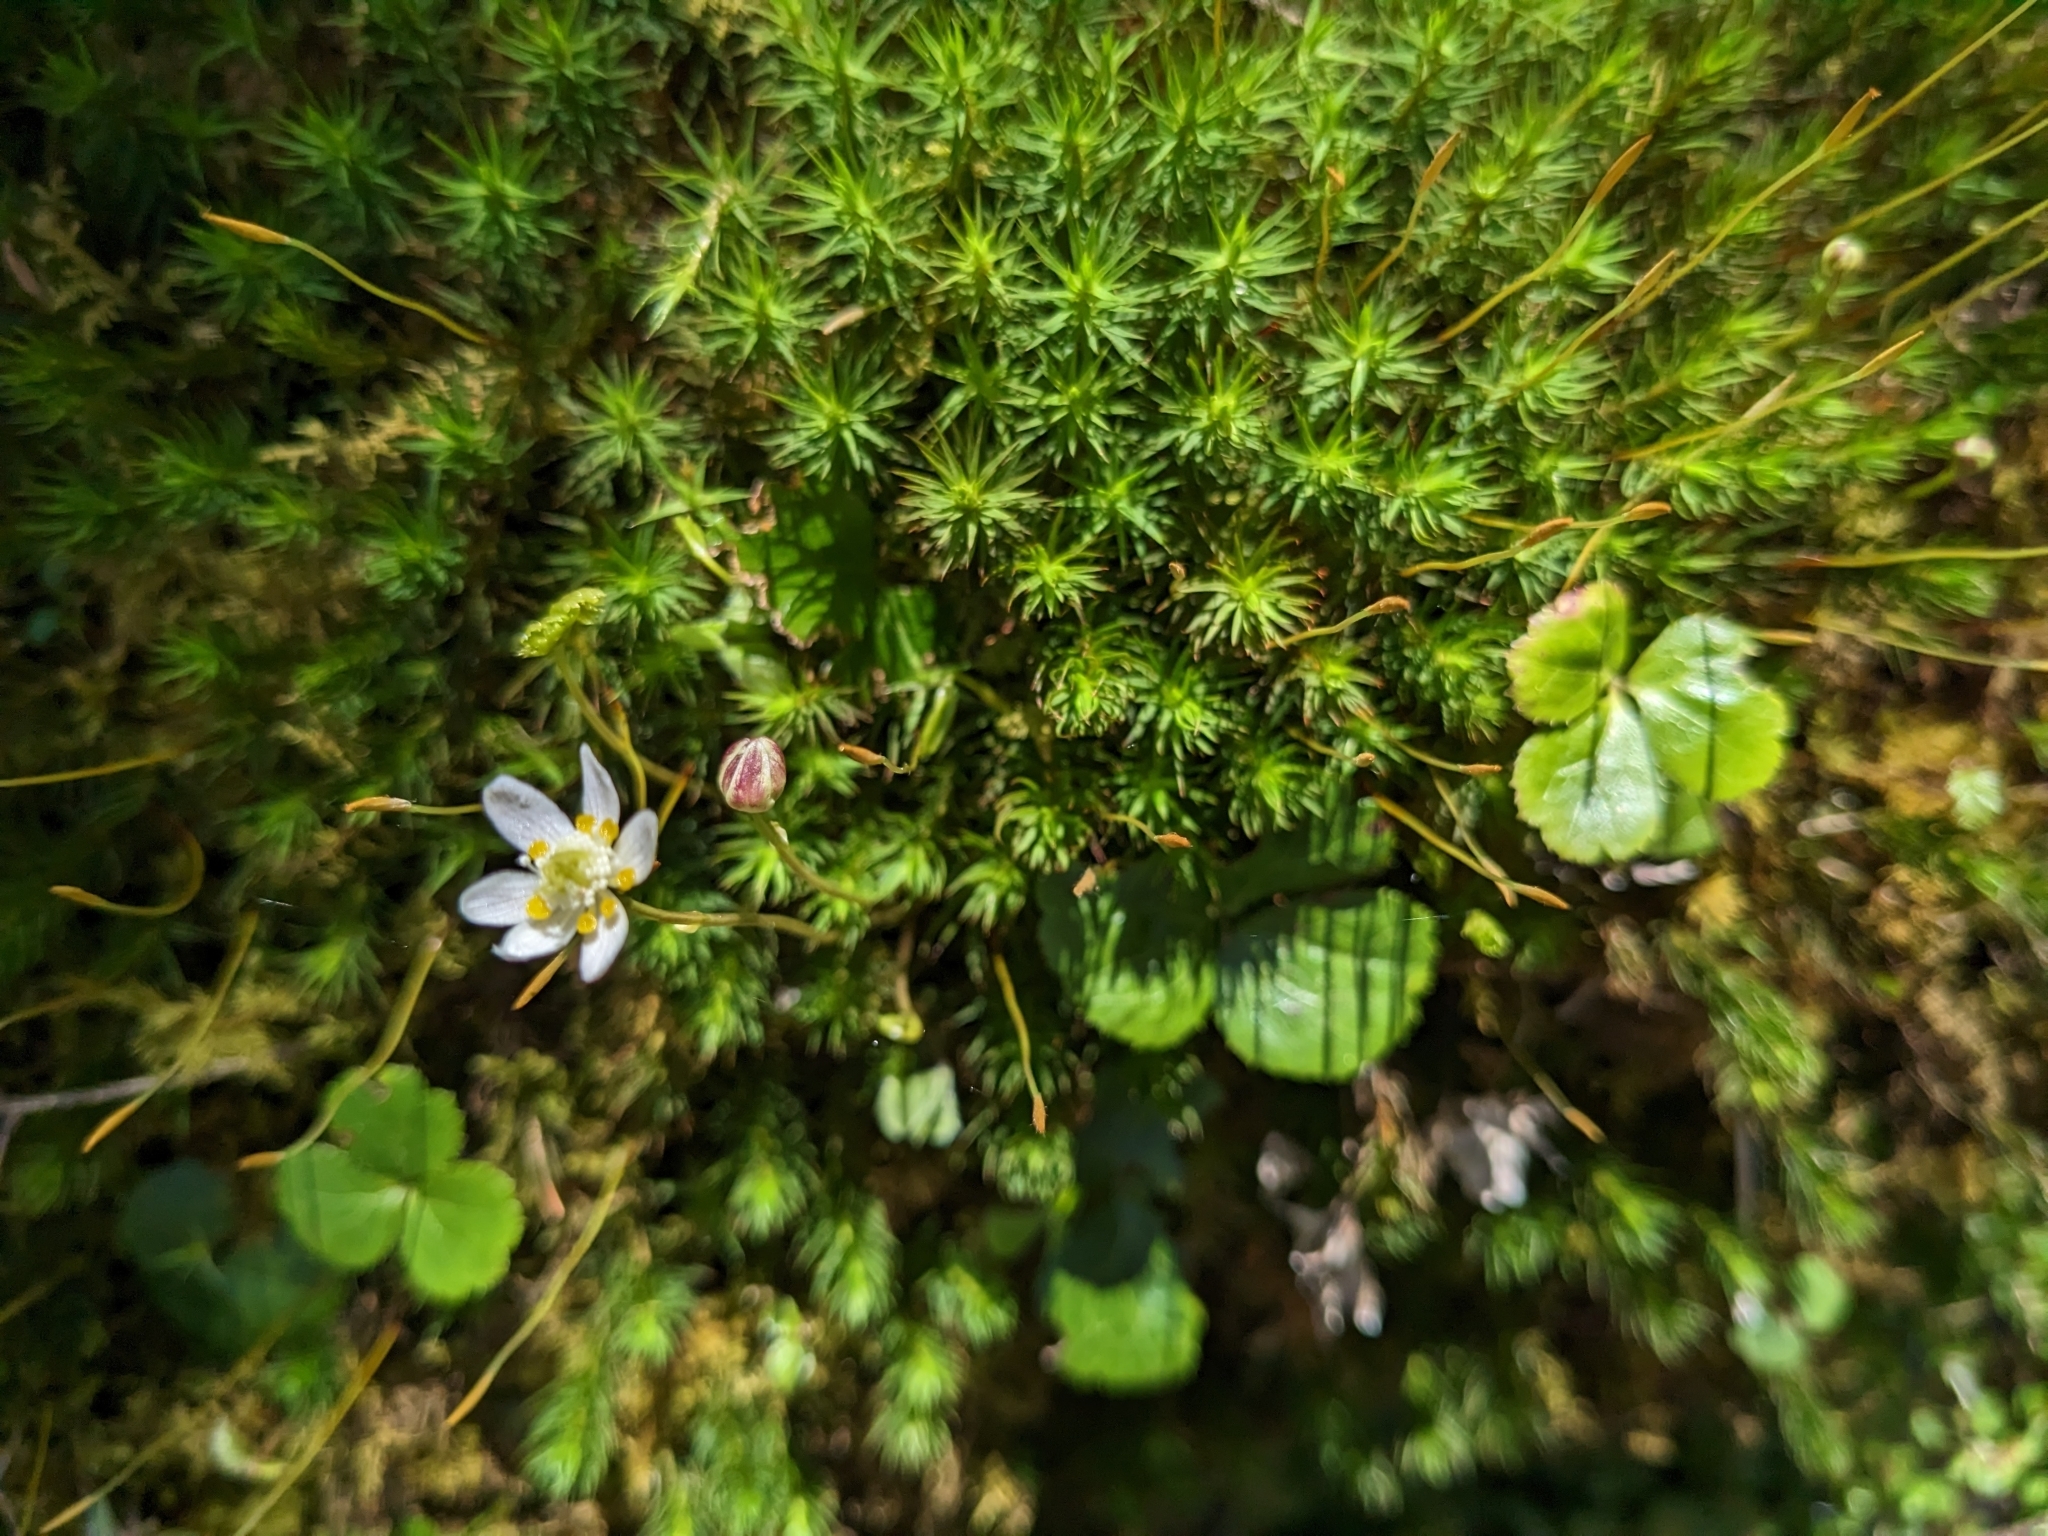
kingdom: Plantae
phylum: Tracheophyta
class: Magnoliopsida
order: Ranunculales
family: Ranunculaceae
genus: Coptis
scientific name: Coptis trifolia
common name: Canker-root
